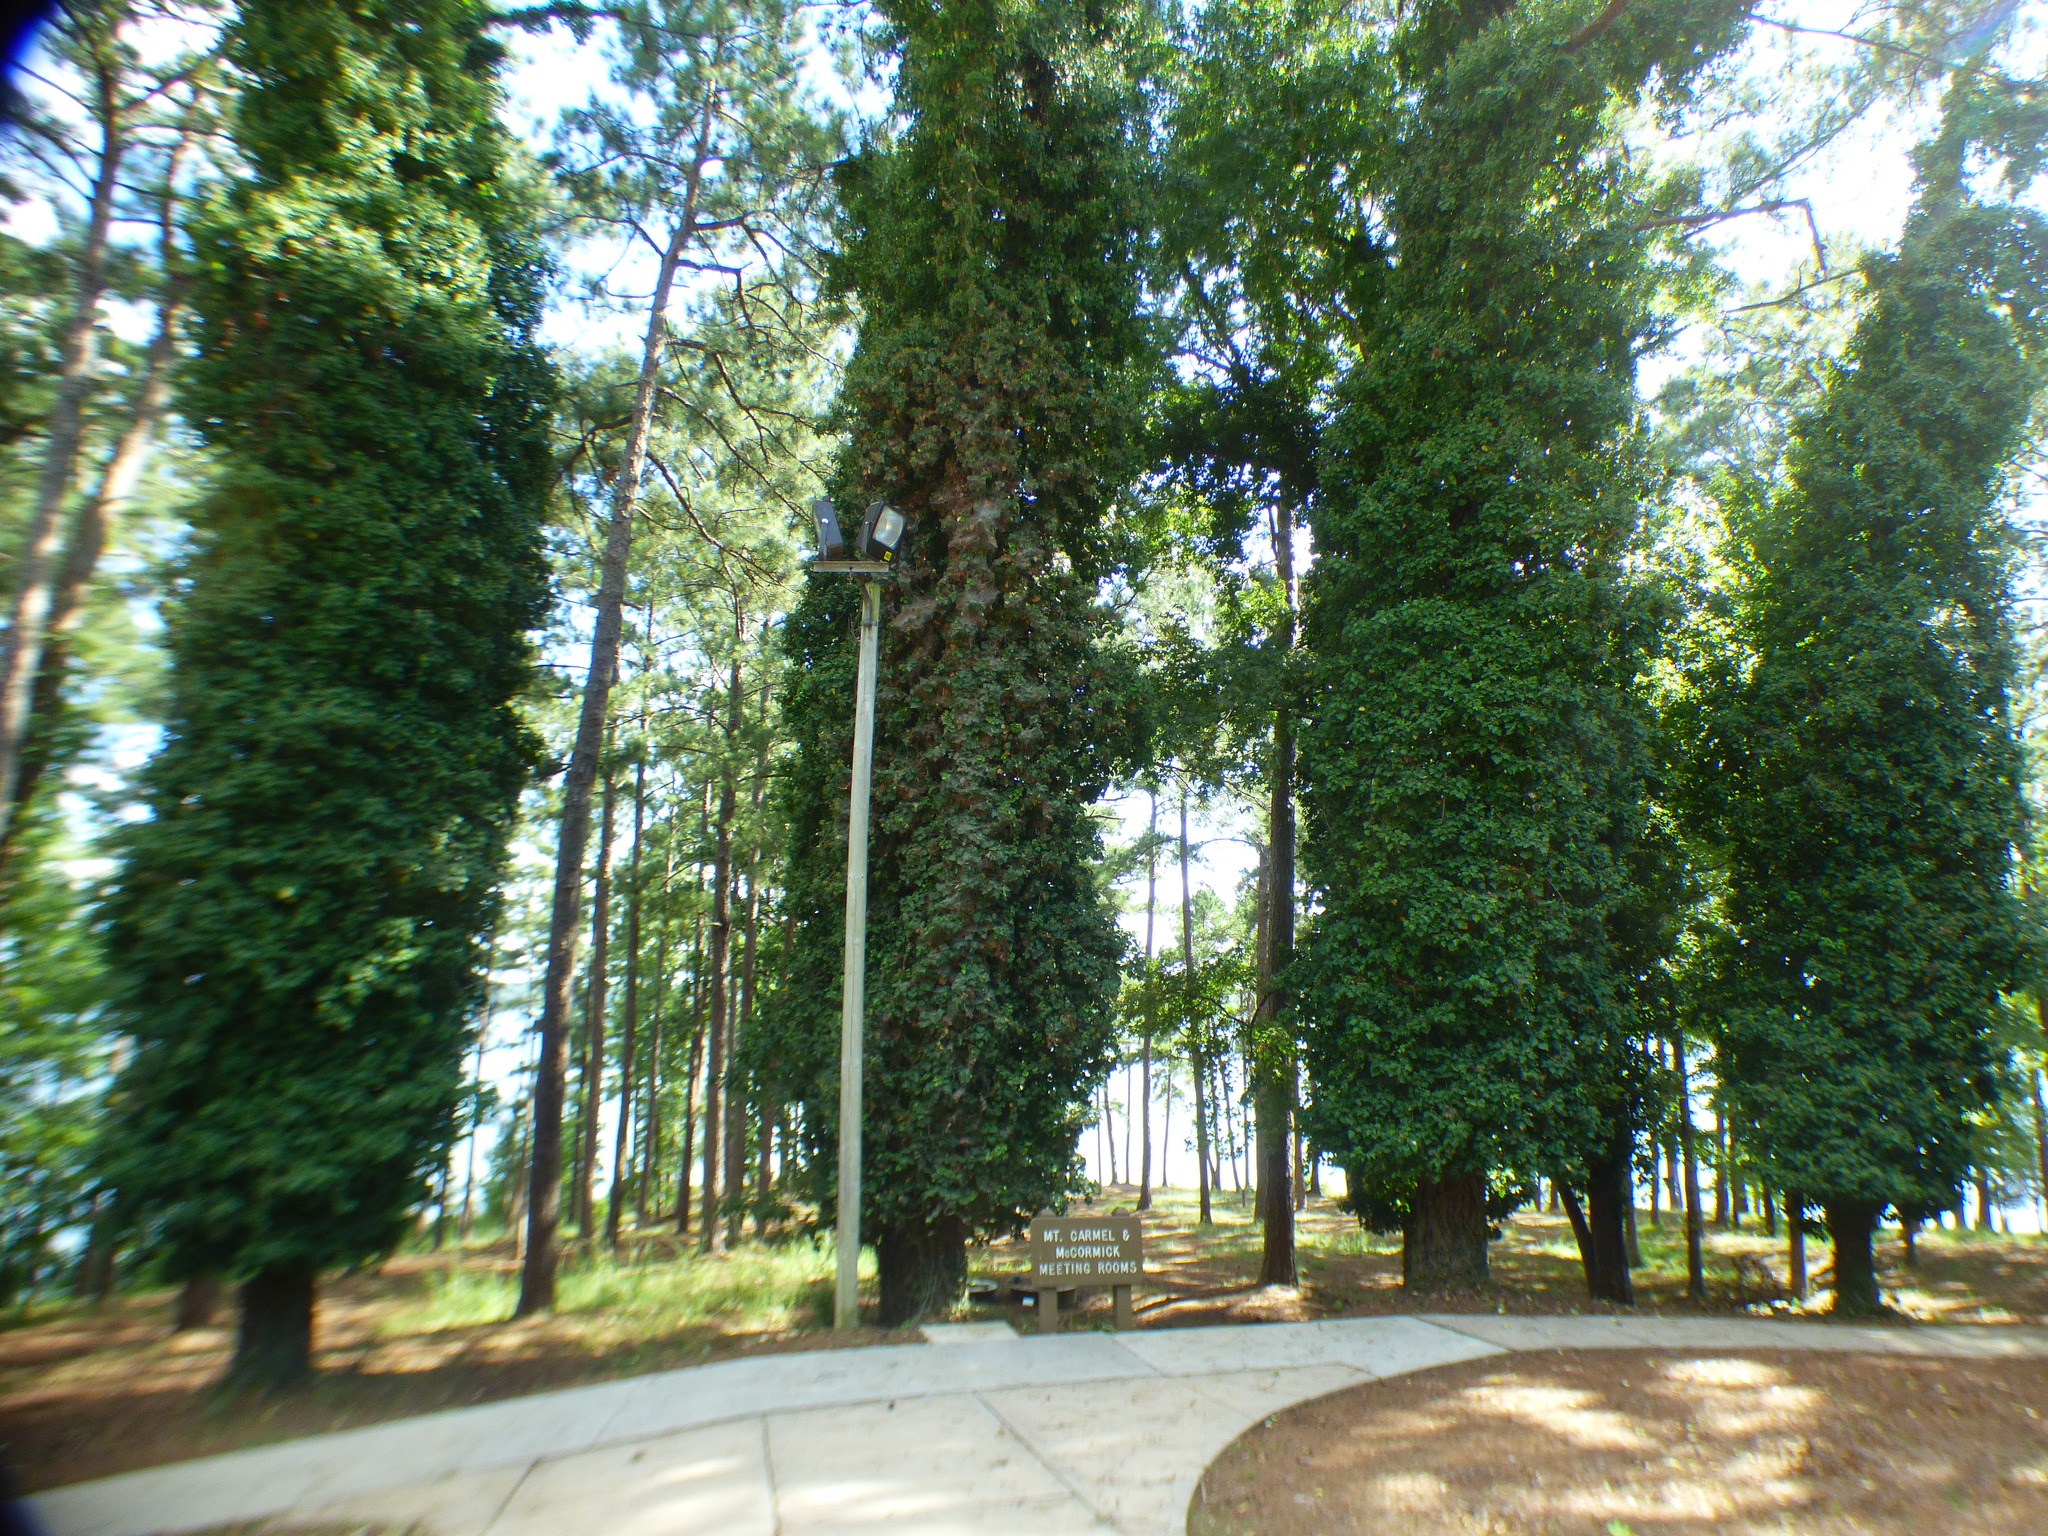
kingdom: Plantae
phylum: Tracheophyta
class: Magnoliopsida
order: Apiales
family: Araliaceae
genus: Hedera
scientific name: Hedera helix
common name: Ivy
